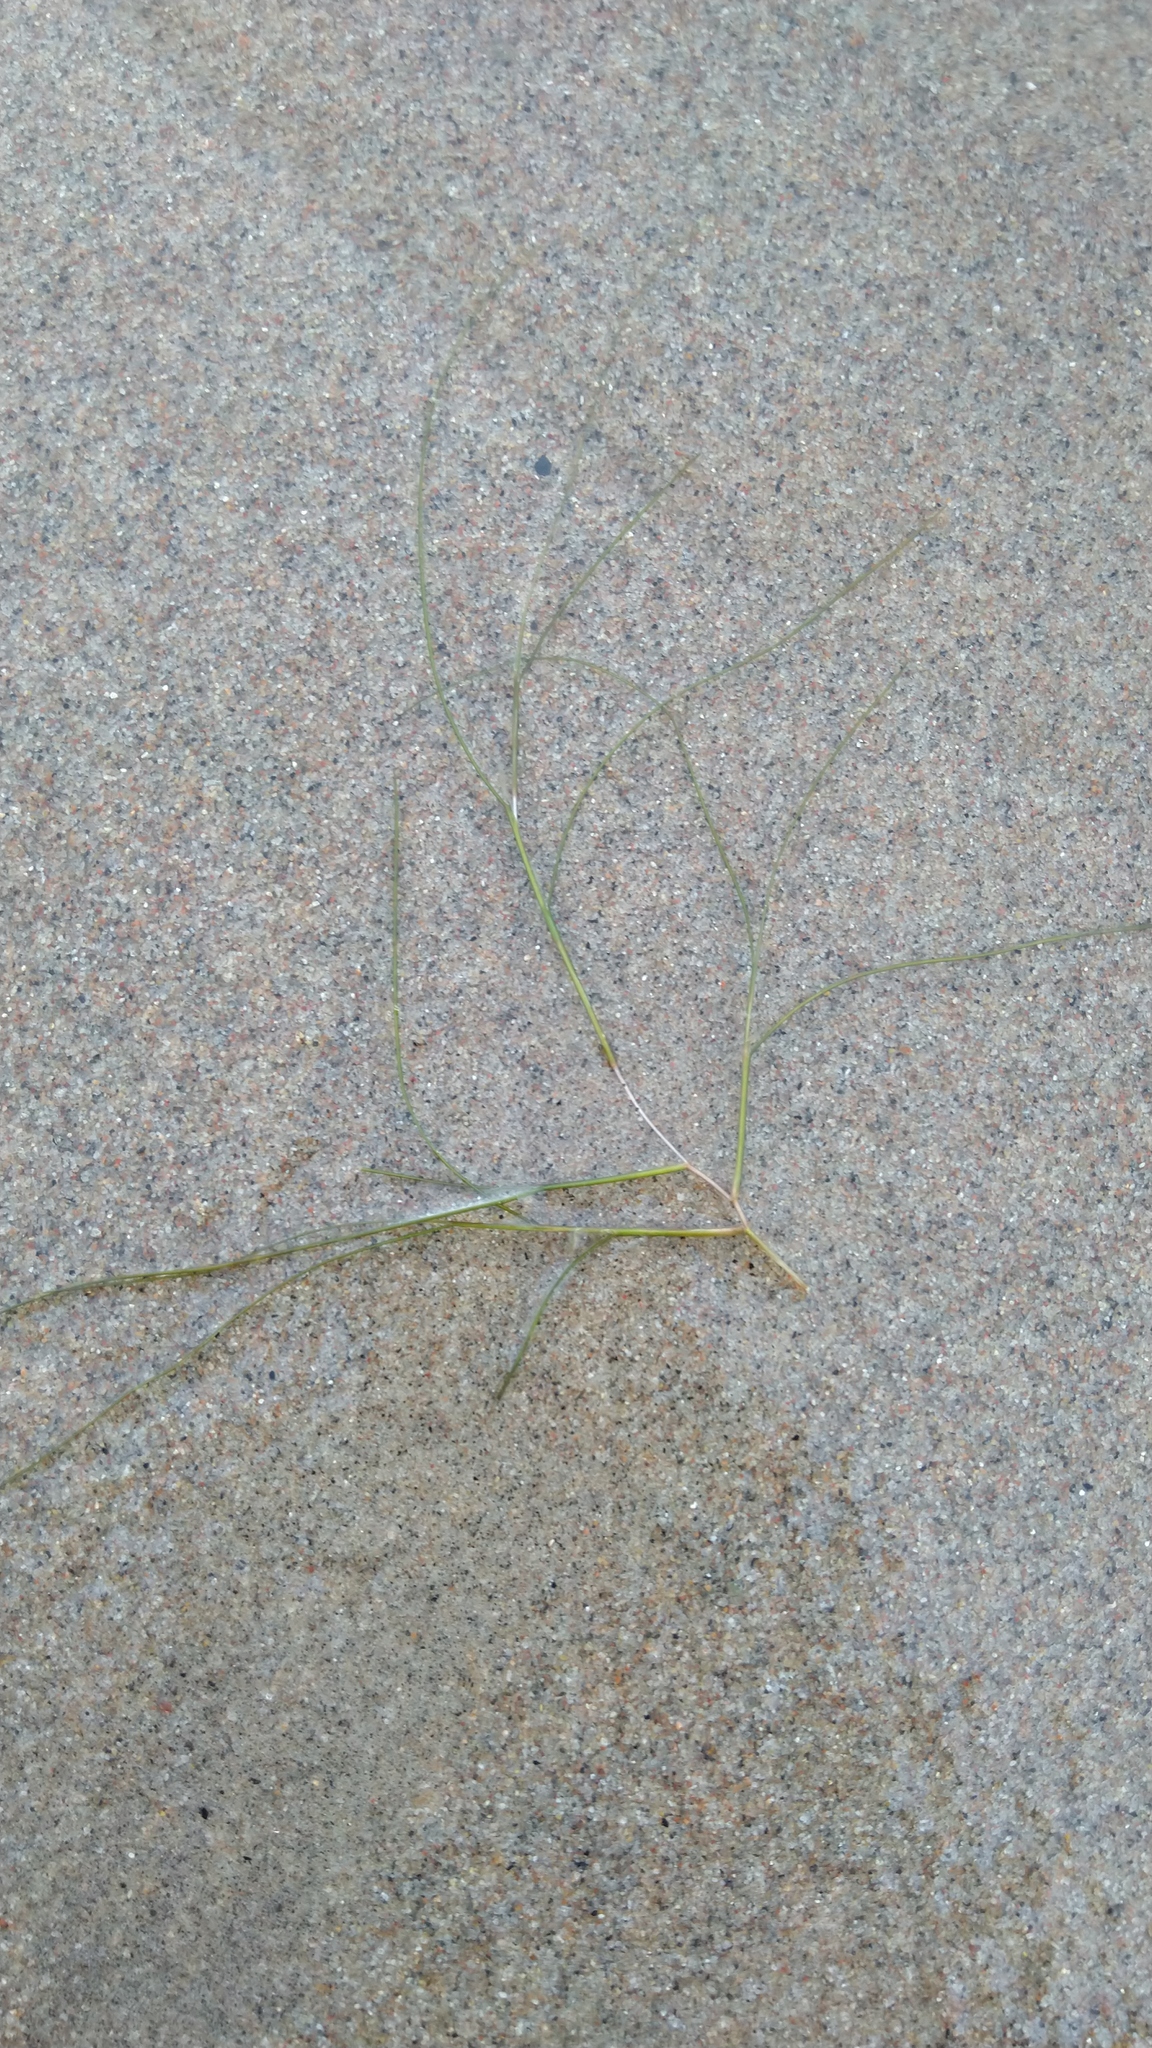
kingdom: Plantae
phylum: Tracheophyta
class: Liliopsida
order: Alismatales
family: Potamogetonaceae
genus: Stuckenia
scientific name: Stuckenia pectinata
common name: Sago pondweed
